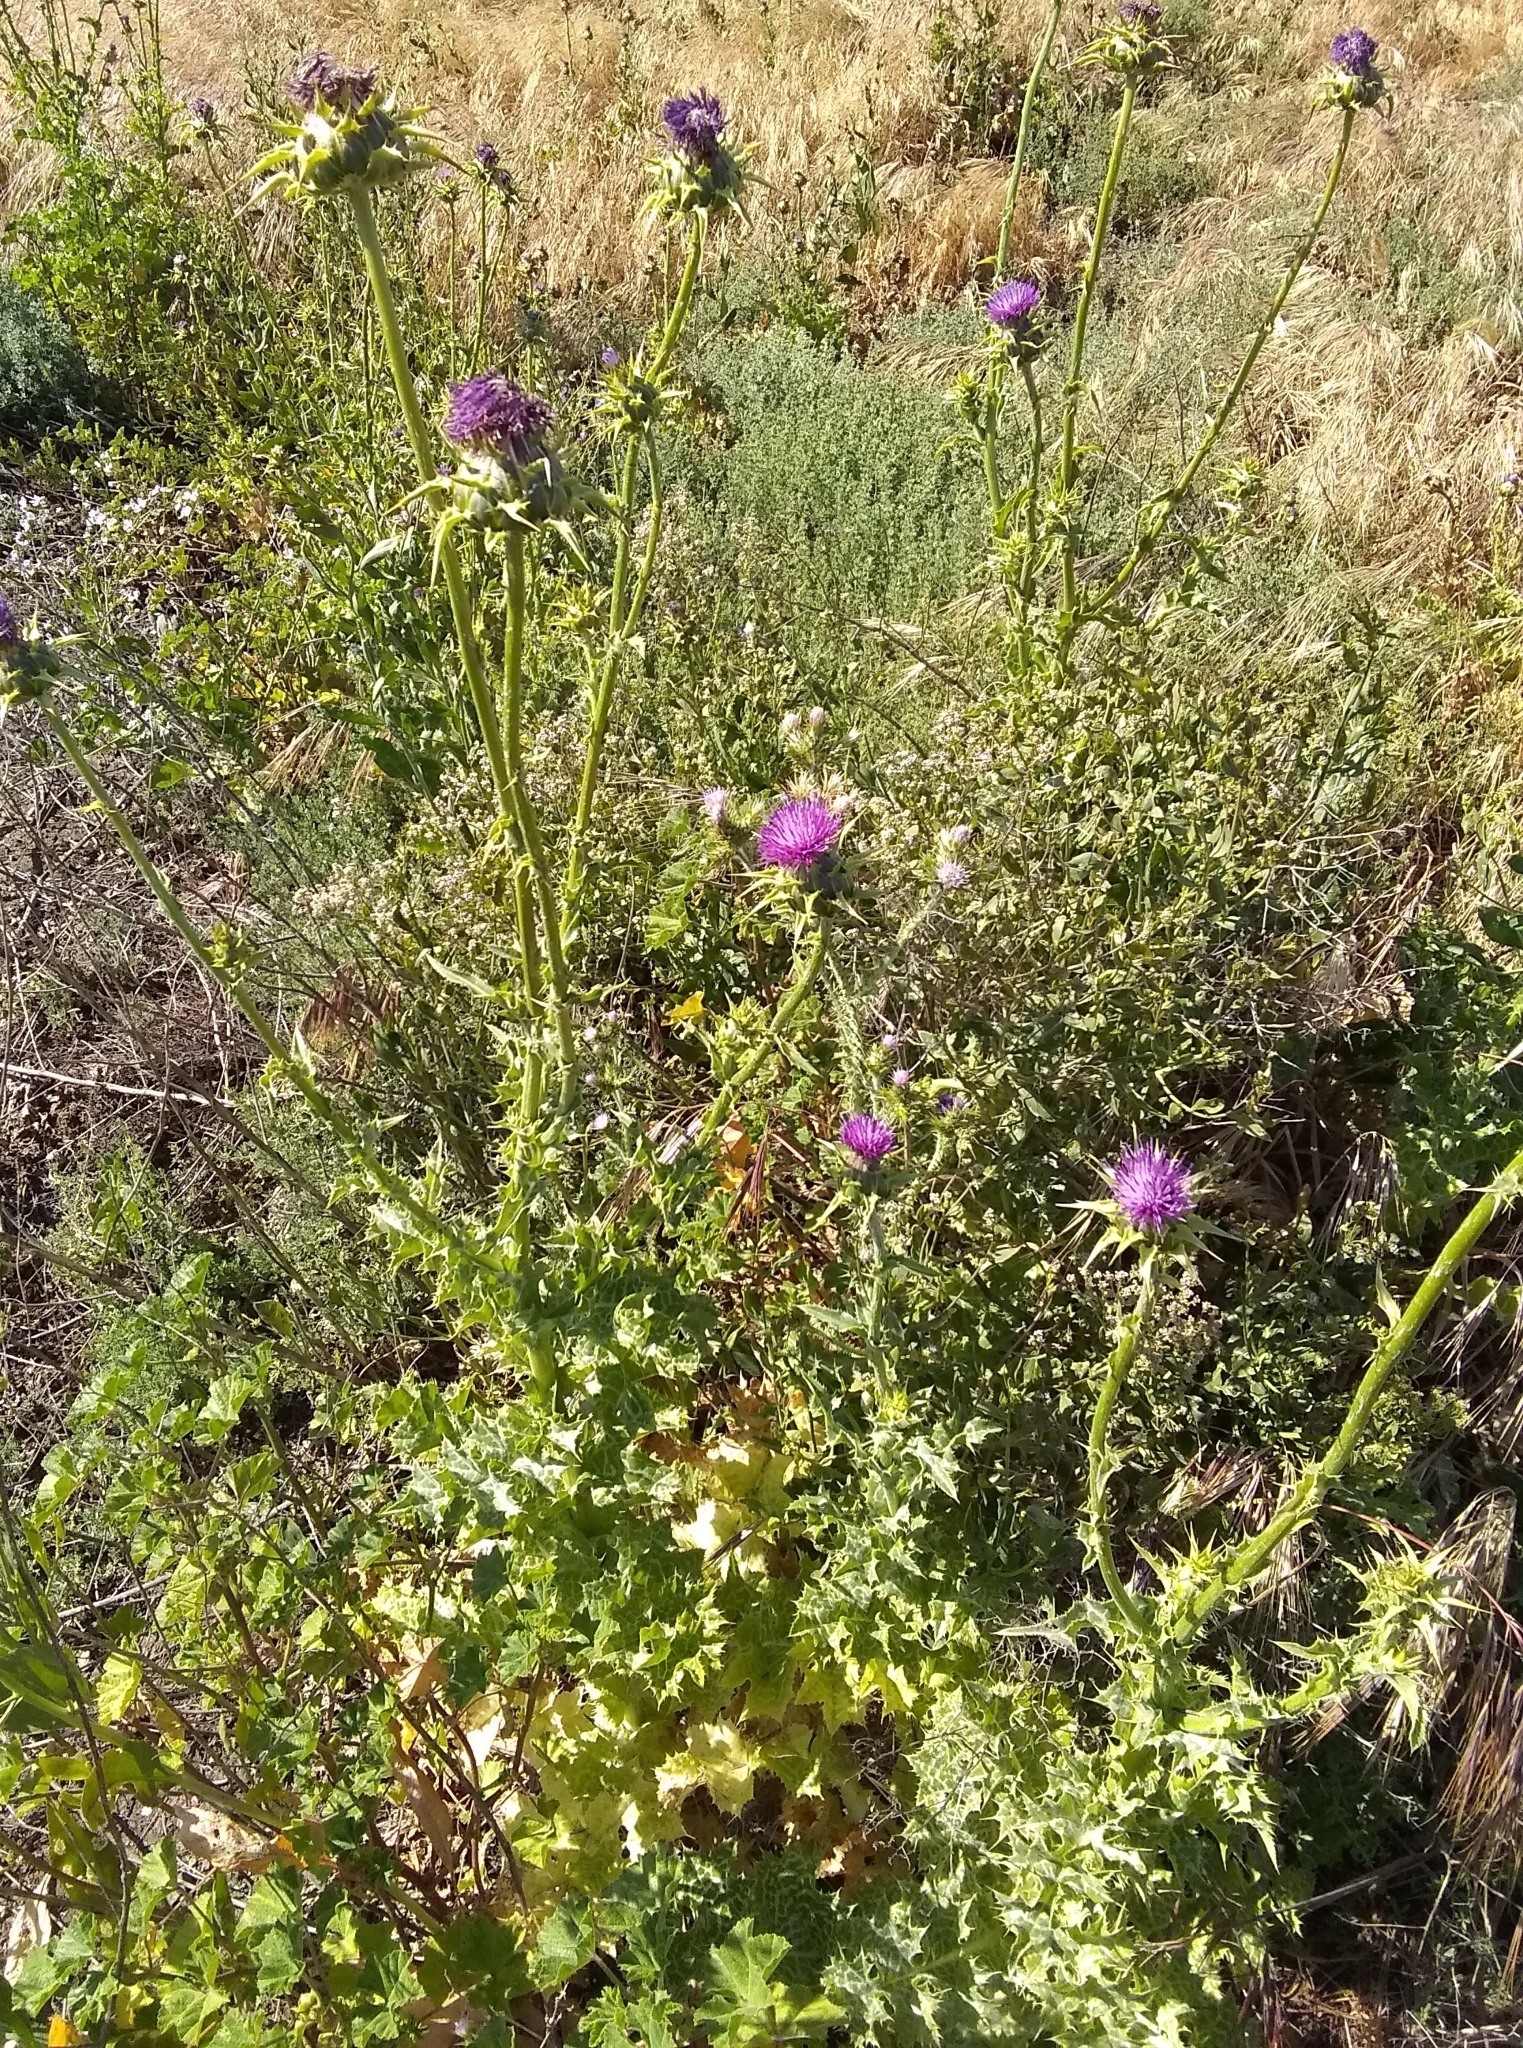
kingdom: Plantae
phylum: Tracheophyta
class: Magnoliopsida
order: Asterales
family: Asteraceae
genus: Silybum
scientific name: Silybum marianum
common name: Milk thistle
